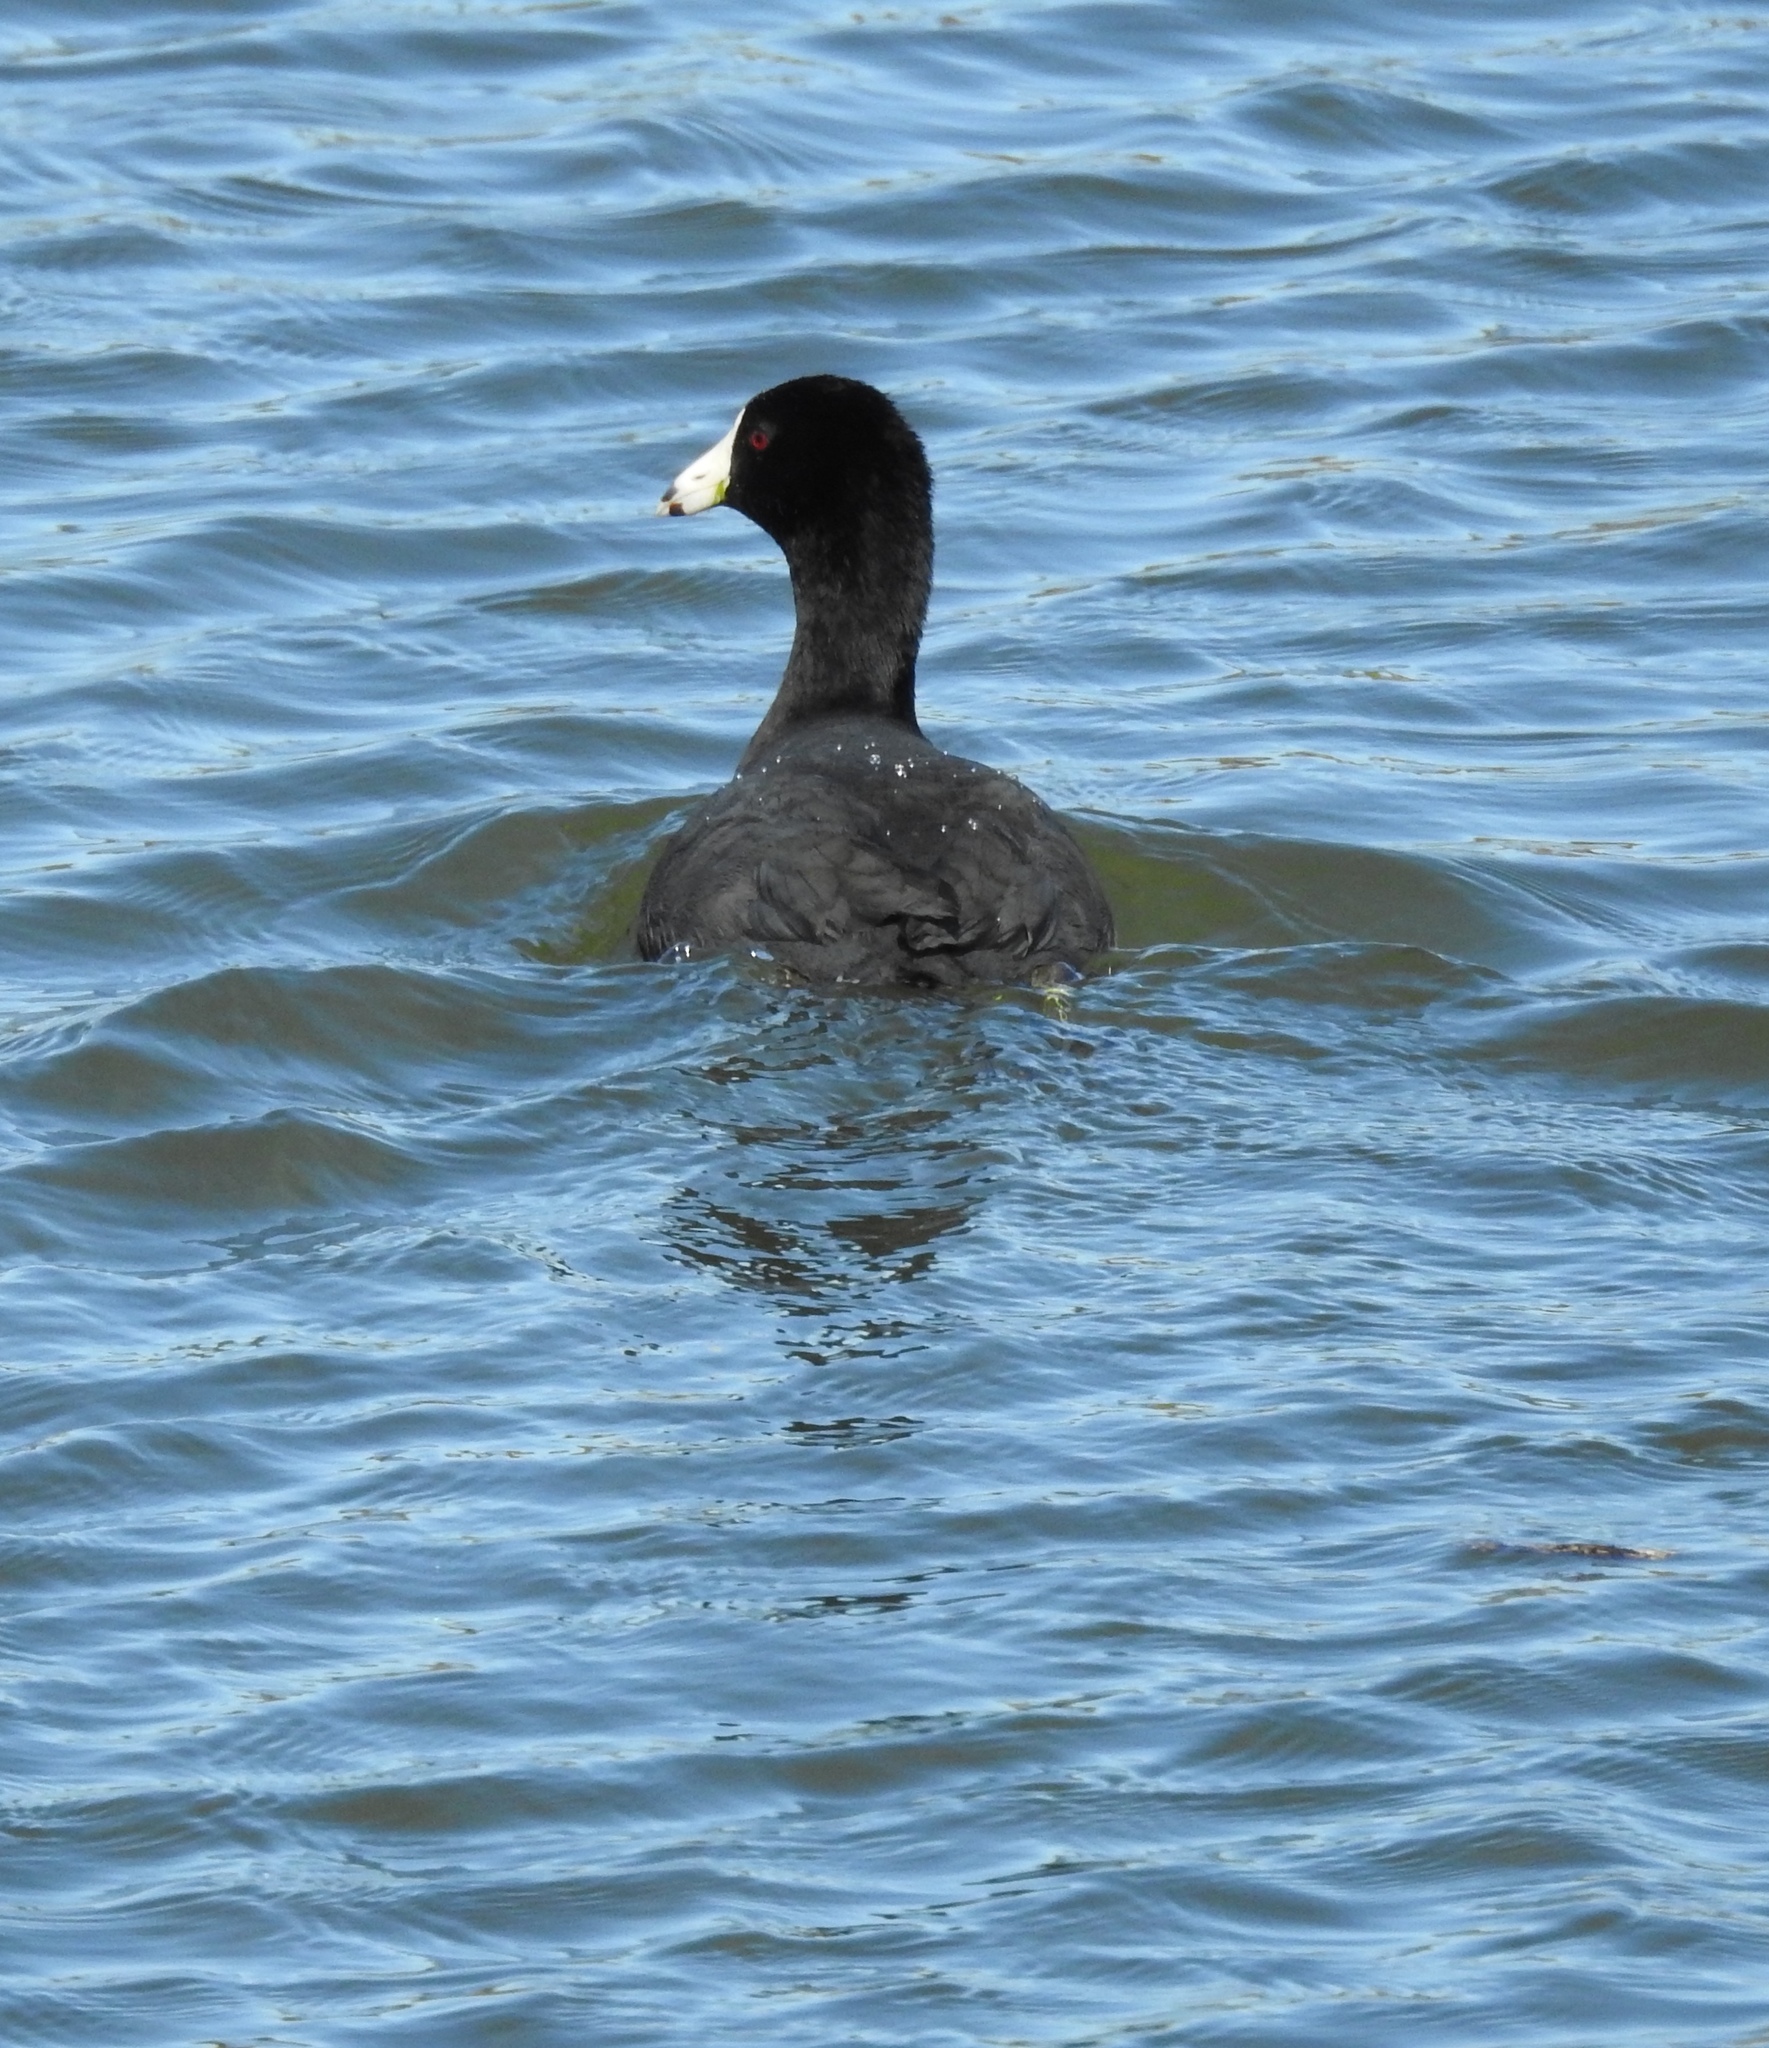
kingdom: Animalia
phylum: Chordata
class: Aves
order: Gruiformes
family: Rallidae
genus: Fulica
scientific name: Fulica americana
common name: American coot
